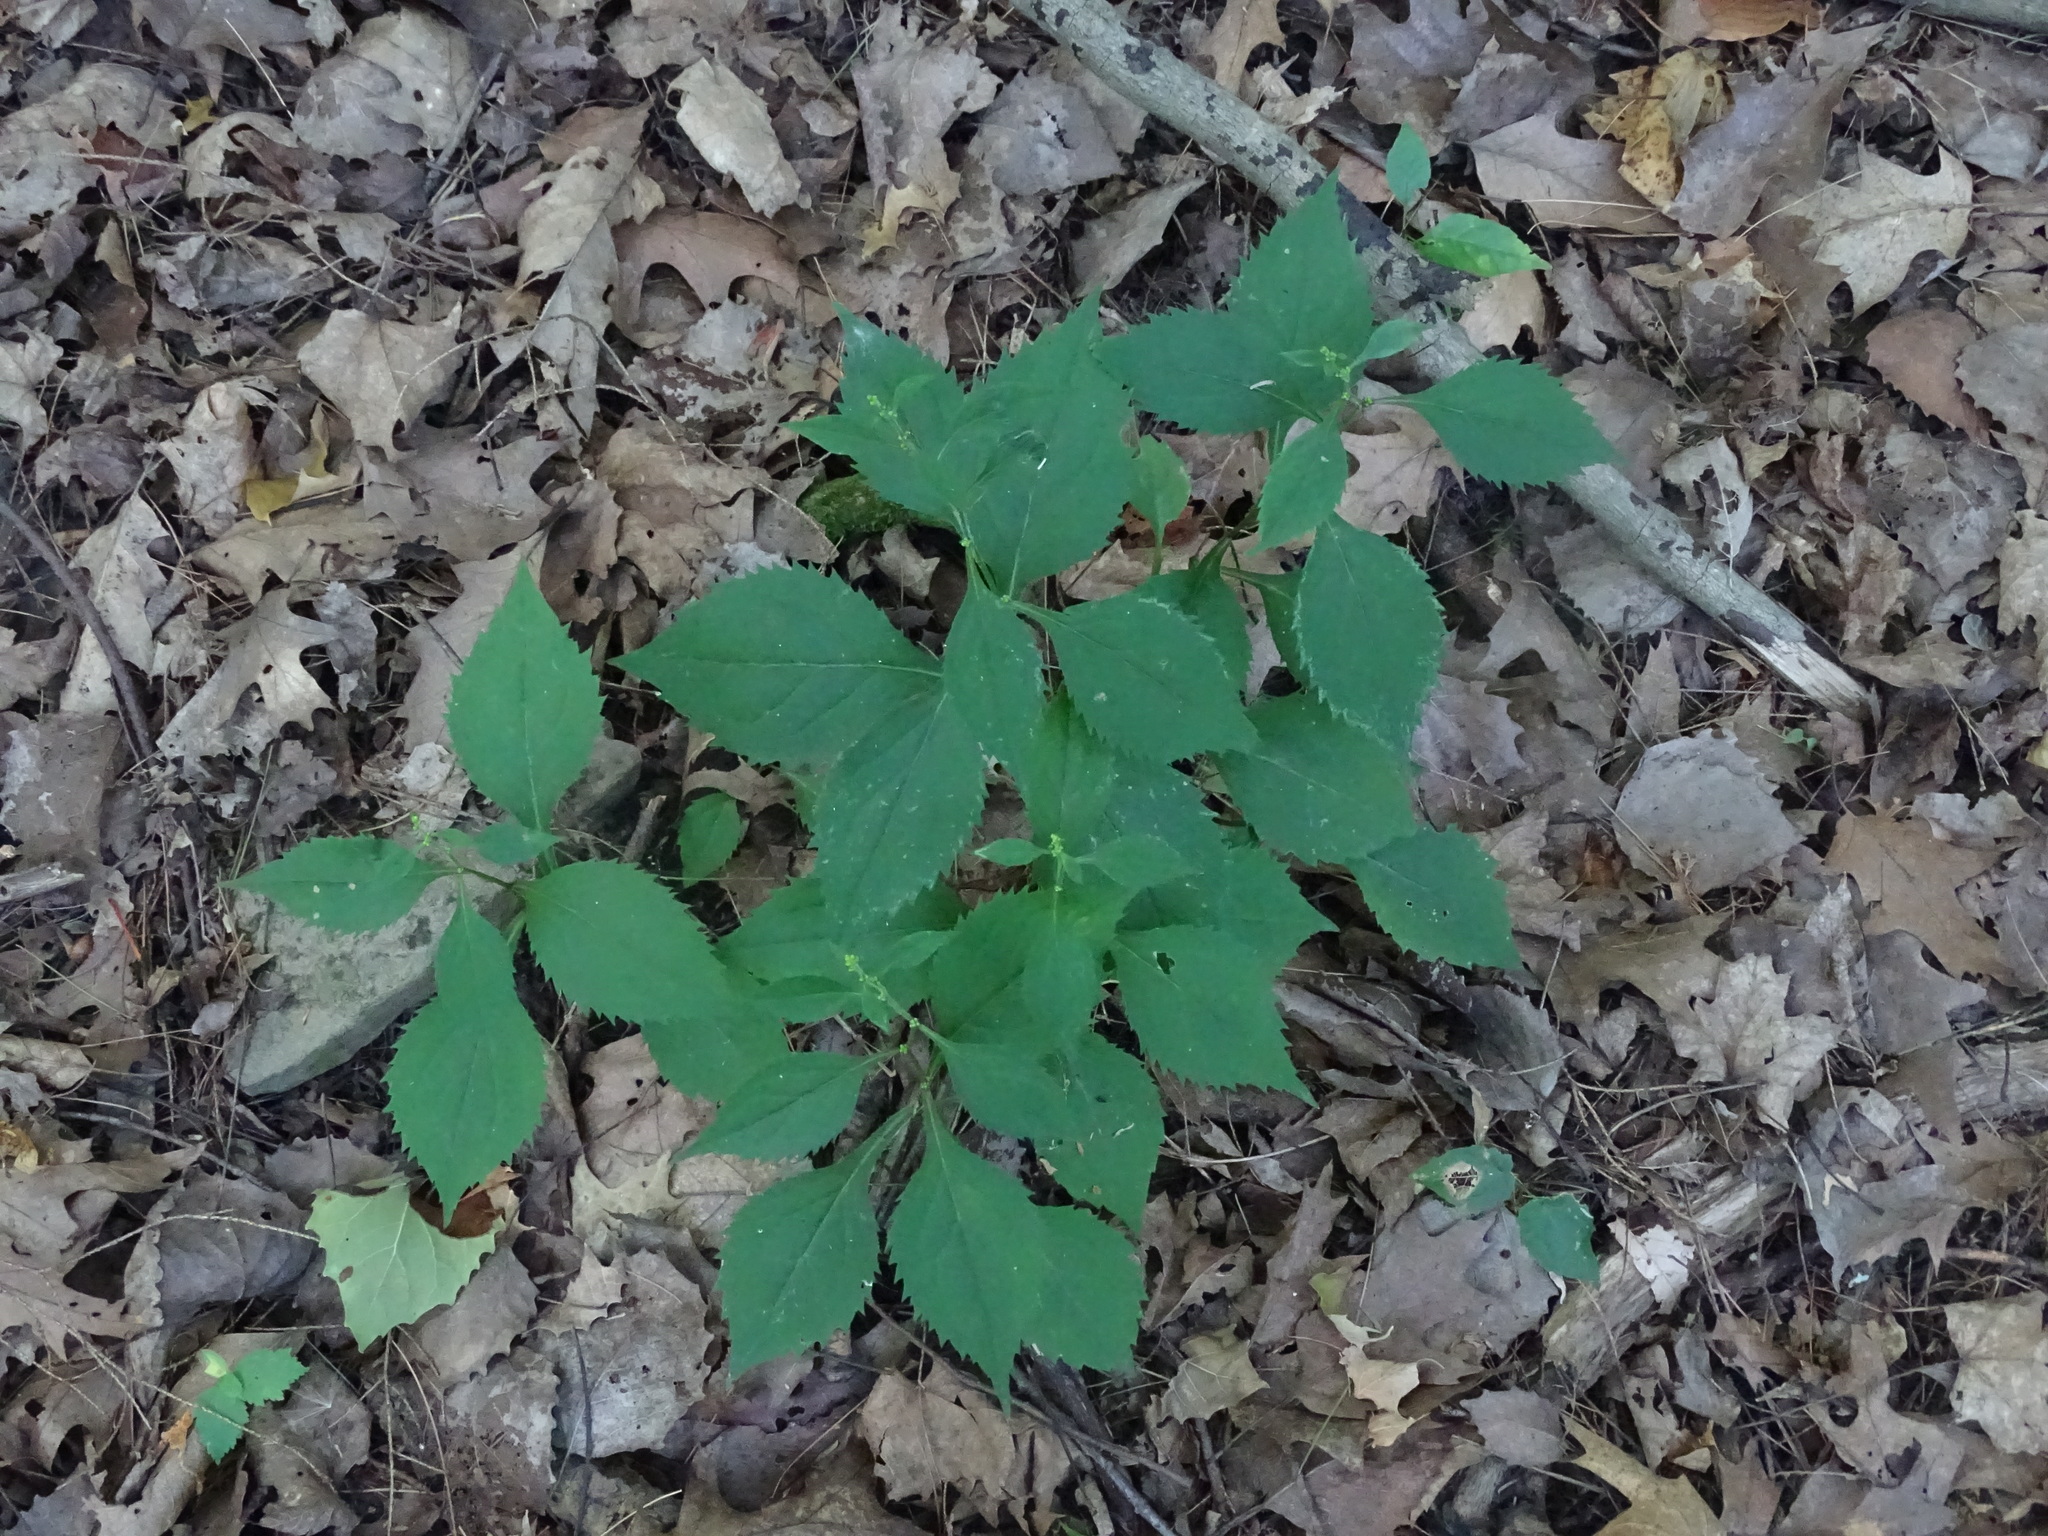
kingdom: Plantae
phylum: Tracheophyta
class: Magnoliopsida
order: Asterales
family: Asteraceae
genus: Solidago
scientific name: Solidago flexicaulis
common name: Zig-zag goldenrod
